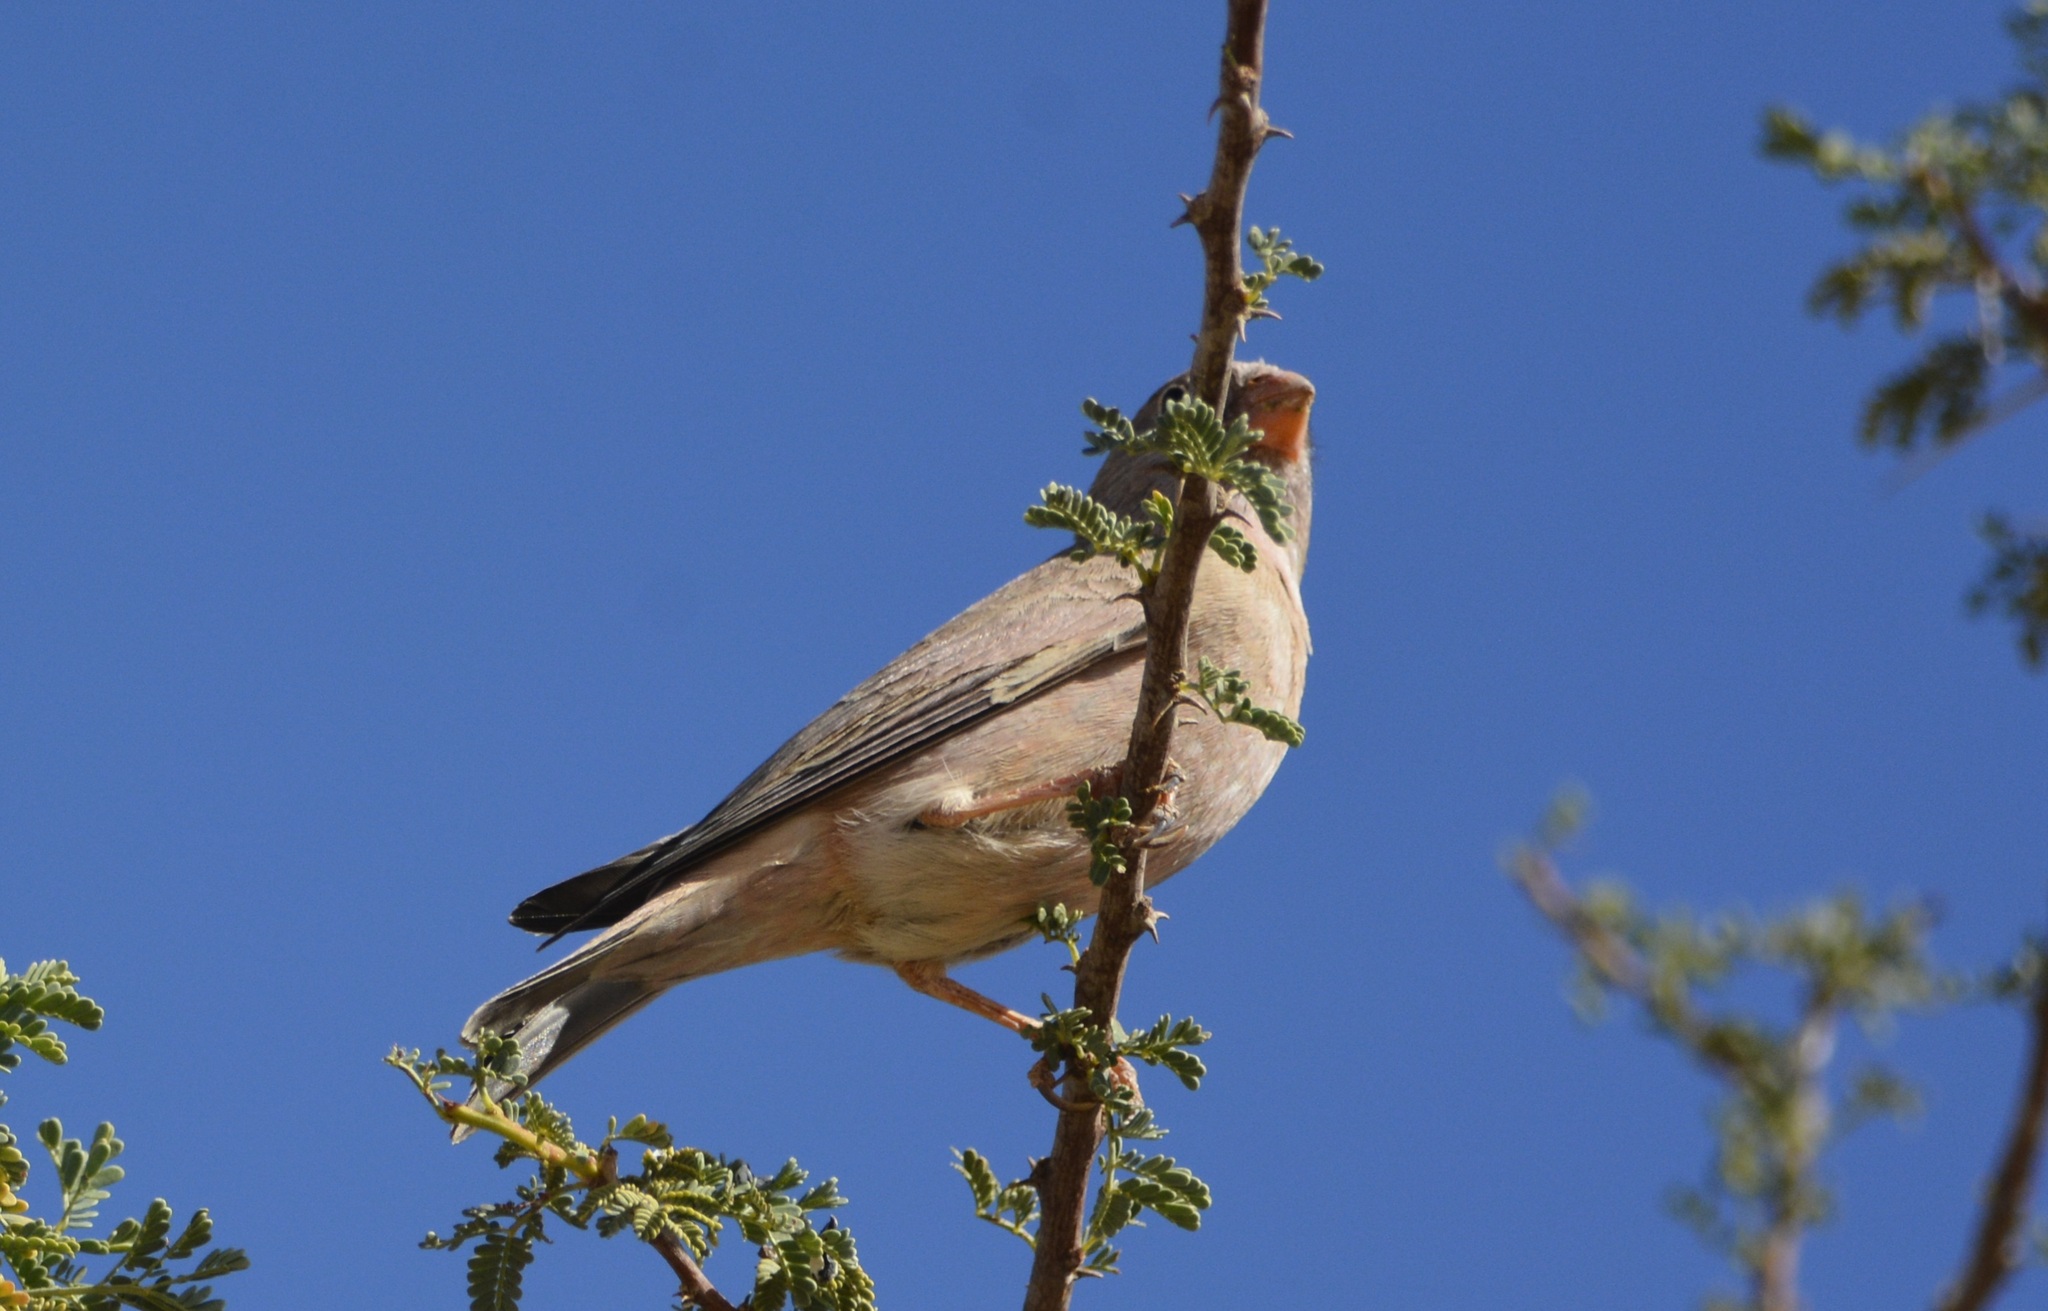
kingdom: Animalia
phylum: Chordata
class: Aves
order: Passeriformes
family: Fringillidae
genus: Bucanetes
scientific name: Bucanetes githagineus
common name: Trumpeter finch
